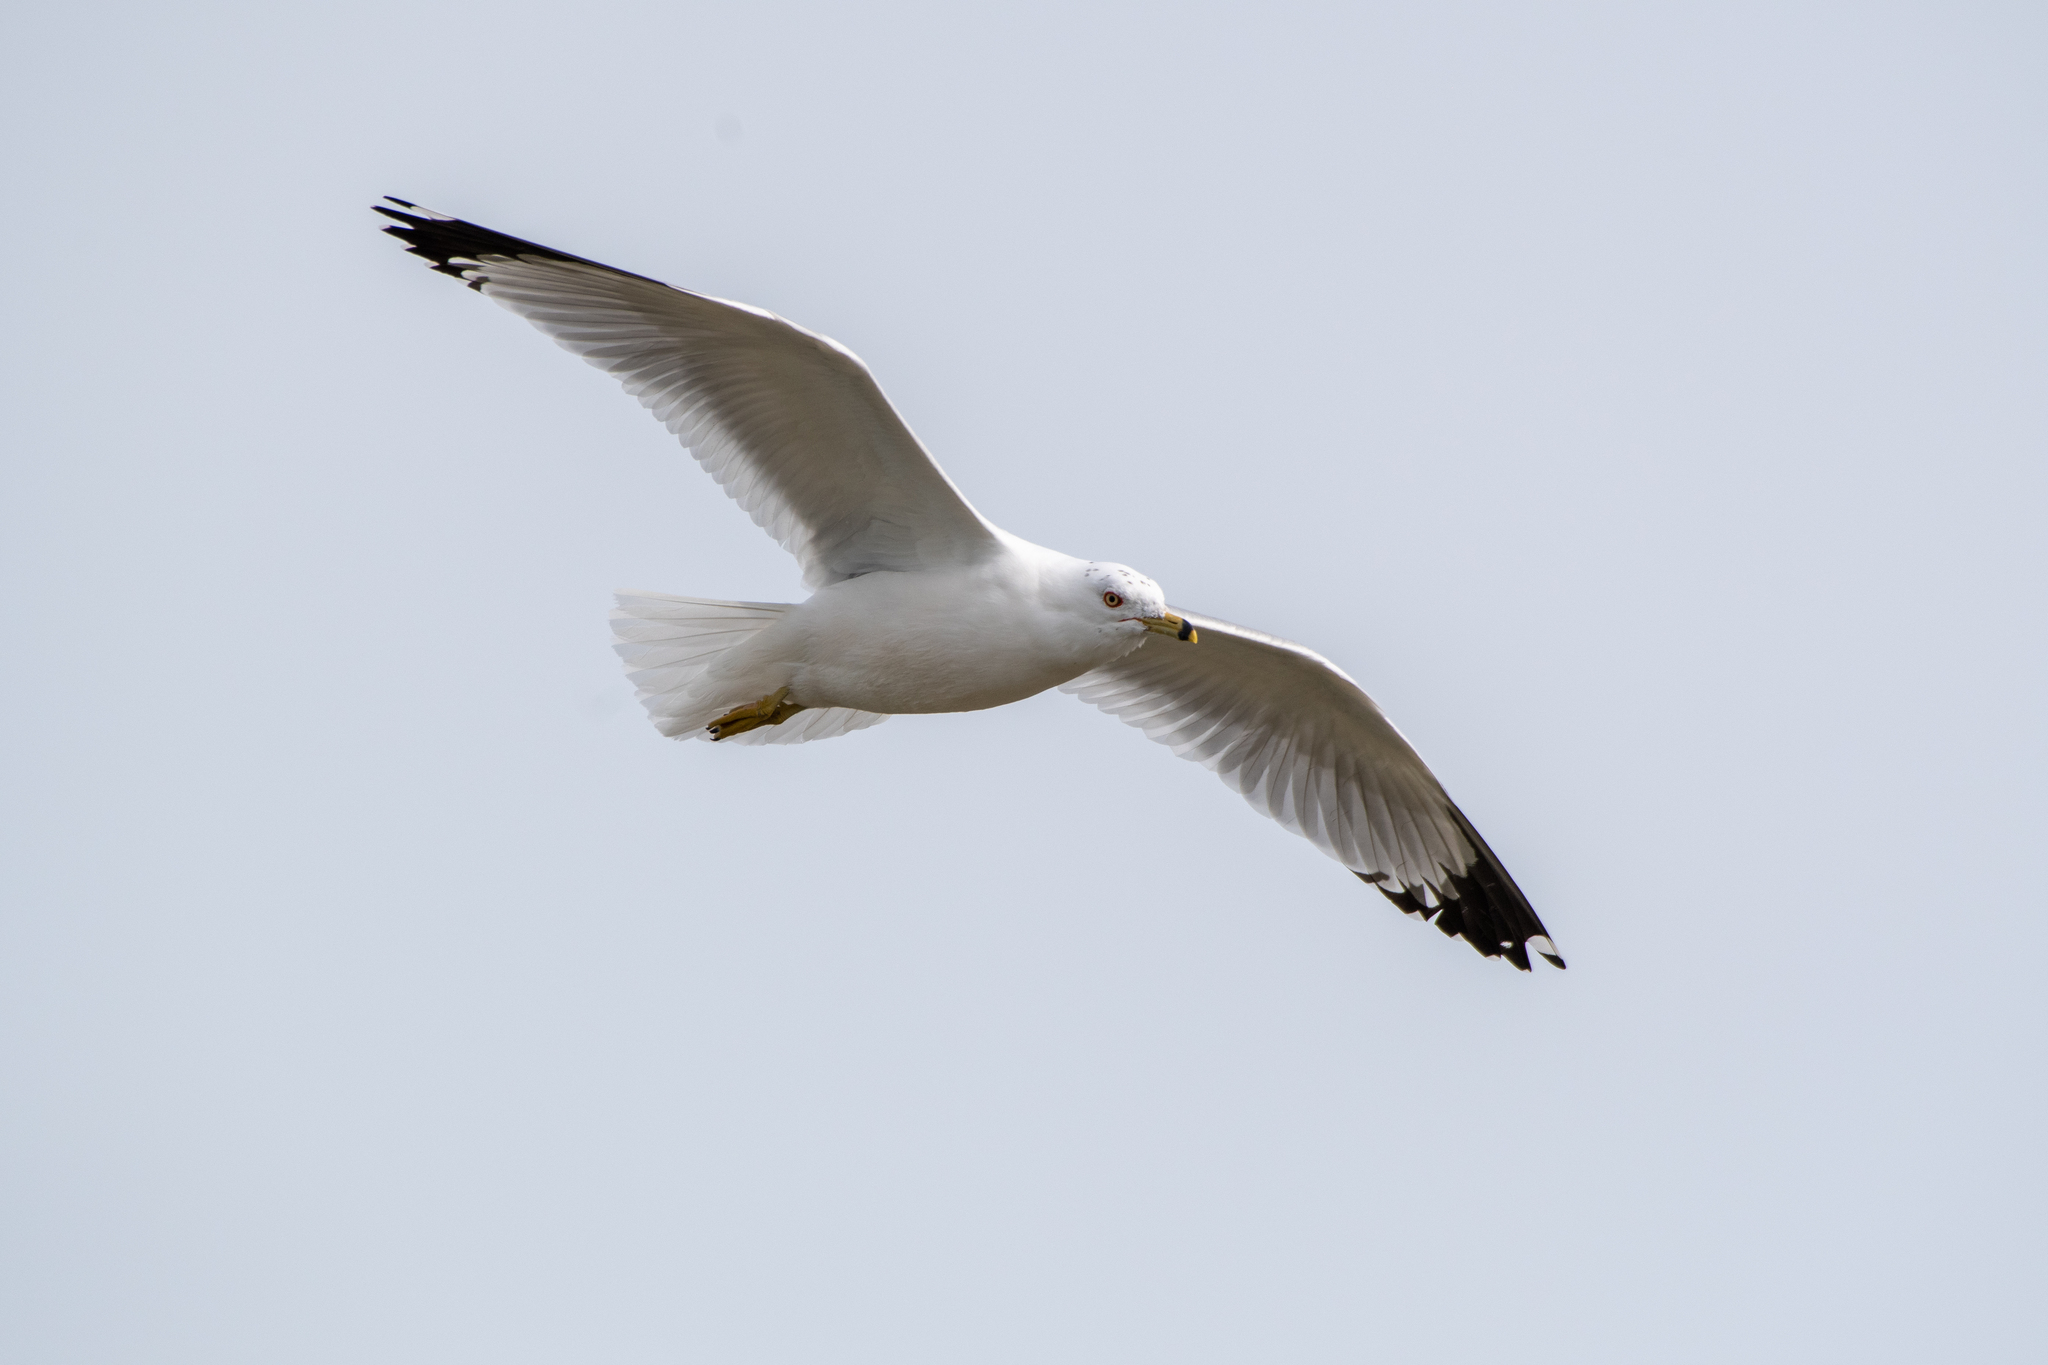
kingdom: Animalia
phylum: Chordata
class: Aves
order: Charadriiformes
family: Laridae
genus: Larus
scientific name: Larus delawarensis
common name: Ring-billed gull
